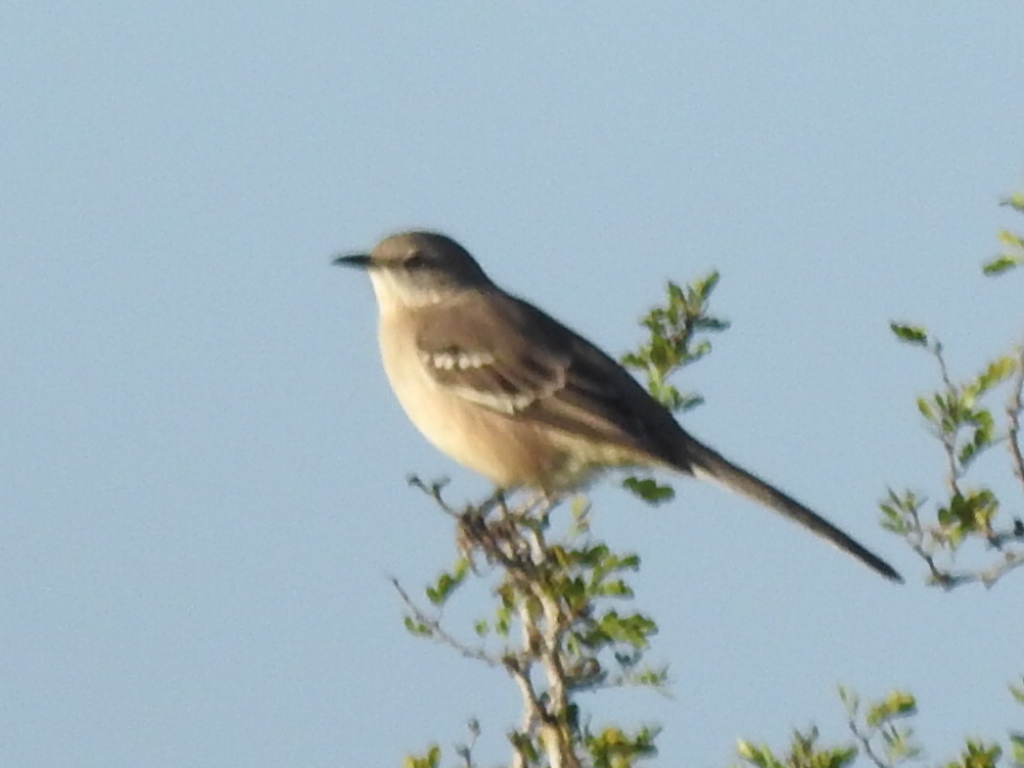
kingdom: Animalia
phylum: Chordata
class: Aves
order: Passeriformes
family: Mimidae
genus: Mimus
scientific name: Mimus polyglottos
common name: Northern mockingbird
